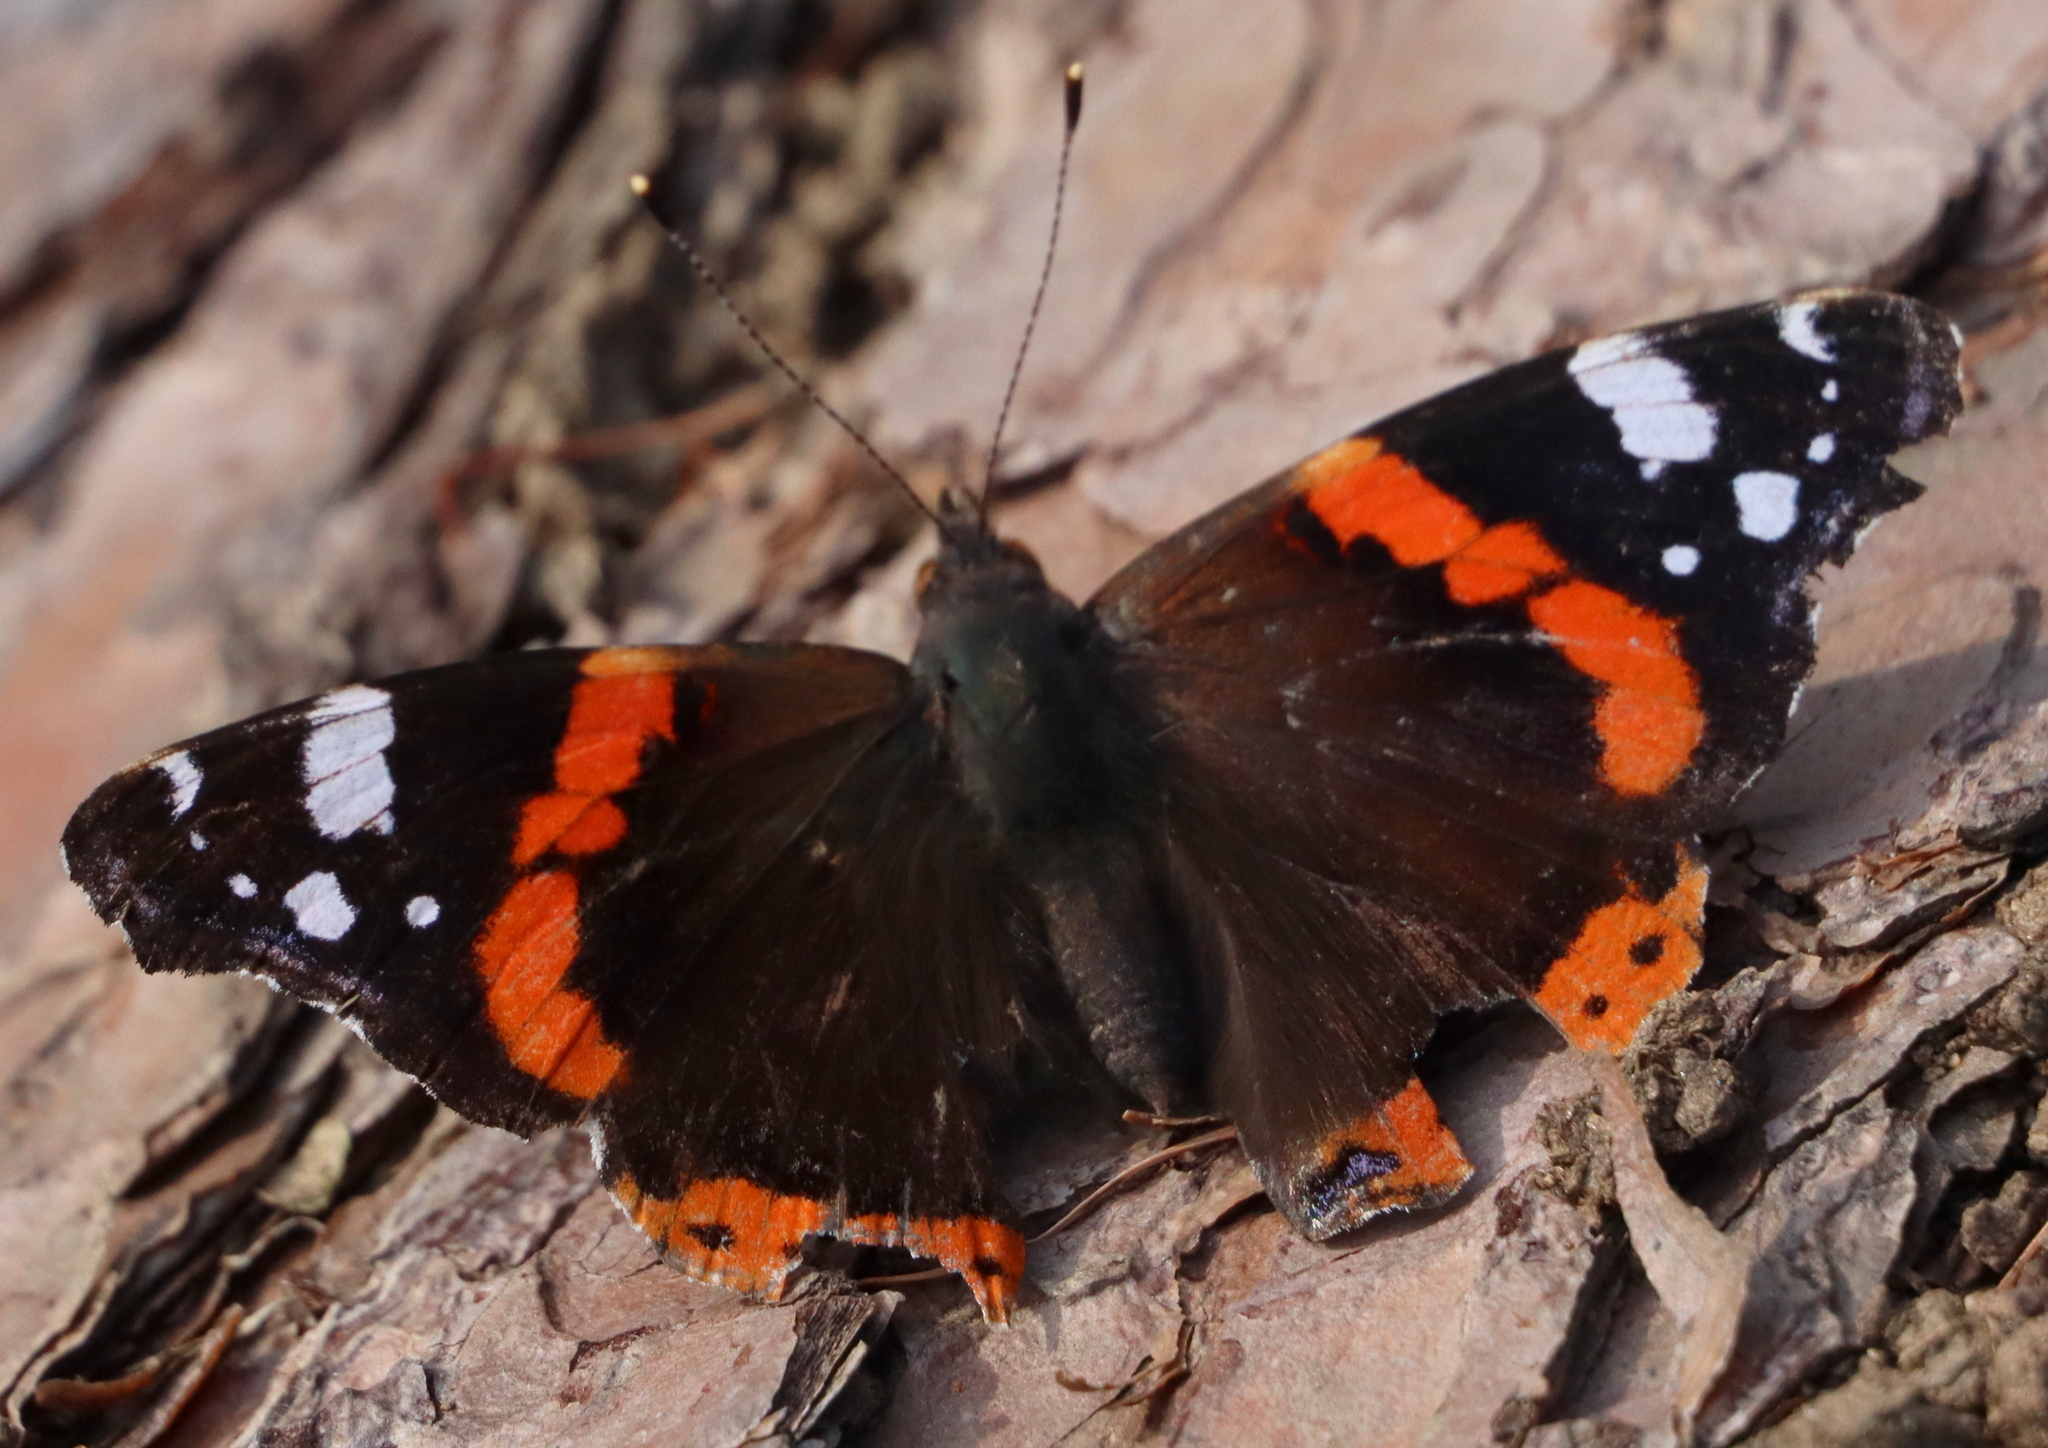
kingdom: Animalia
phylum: Arthropoda
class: Insecta
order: Lepidoptera
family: Nymphalidae
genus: Vanessa
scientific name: Vanessa atalanta
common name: Red admiral
